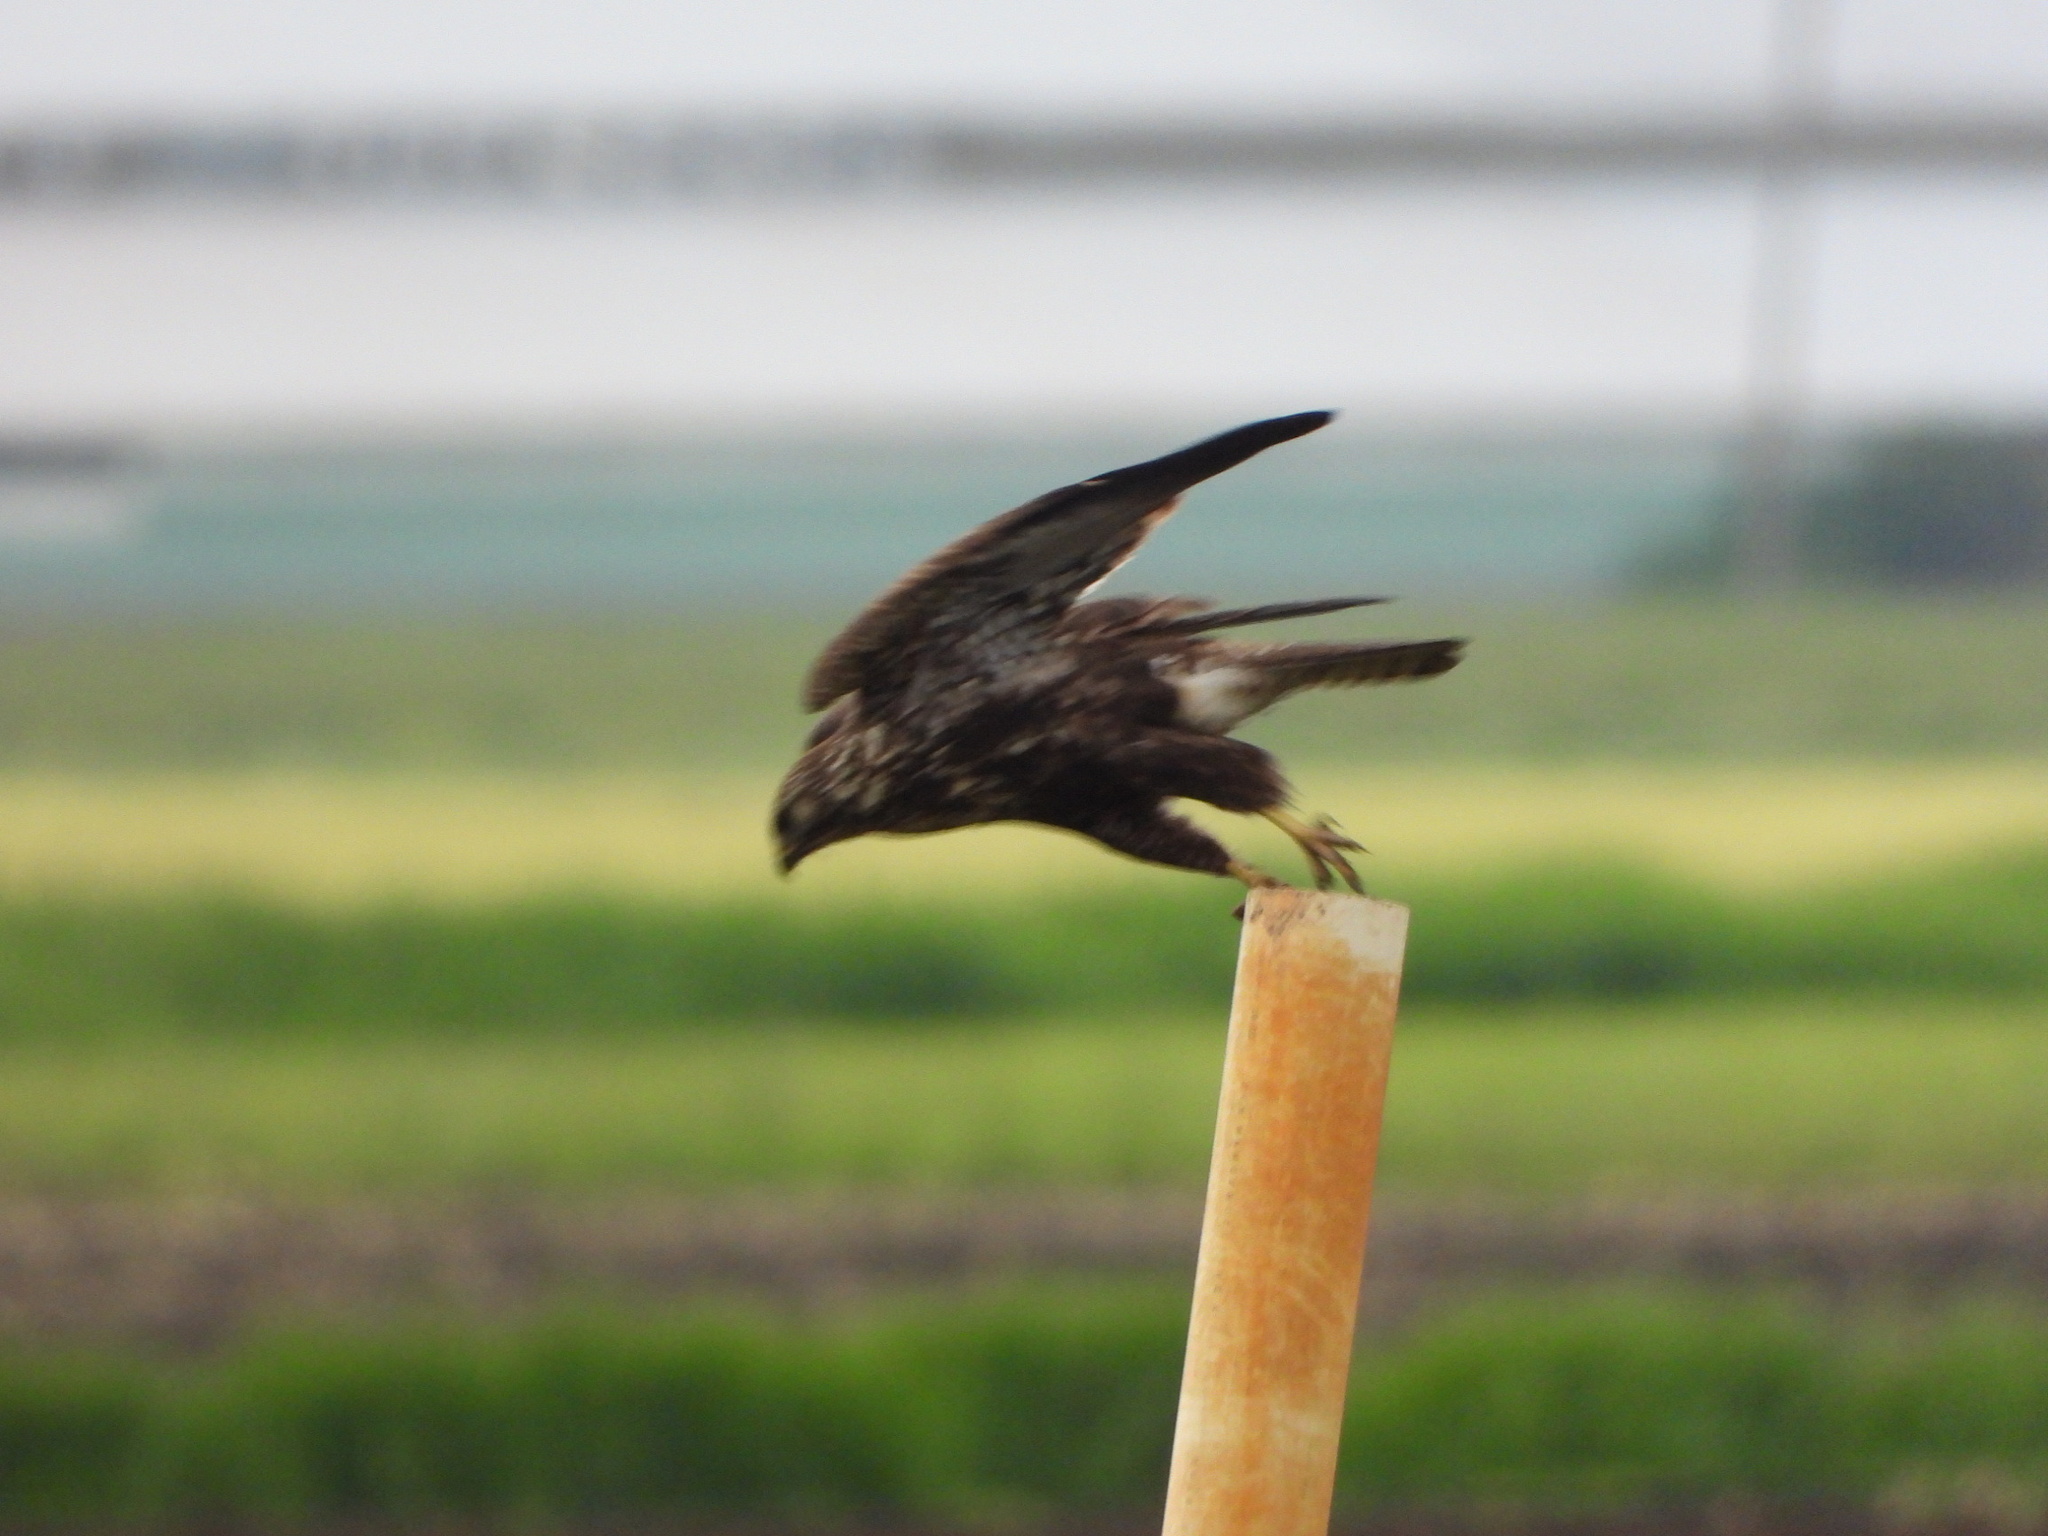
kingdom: Animalia
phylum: Chordata
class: Aves
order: Accipitriformes
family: Accipitridae
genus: Buteo
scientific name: Buteo swainsoni
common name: Swainson's hawk
